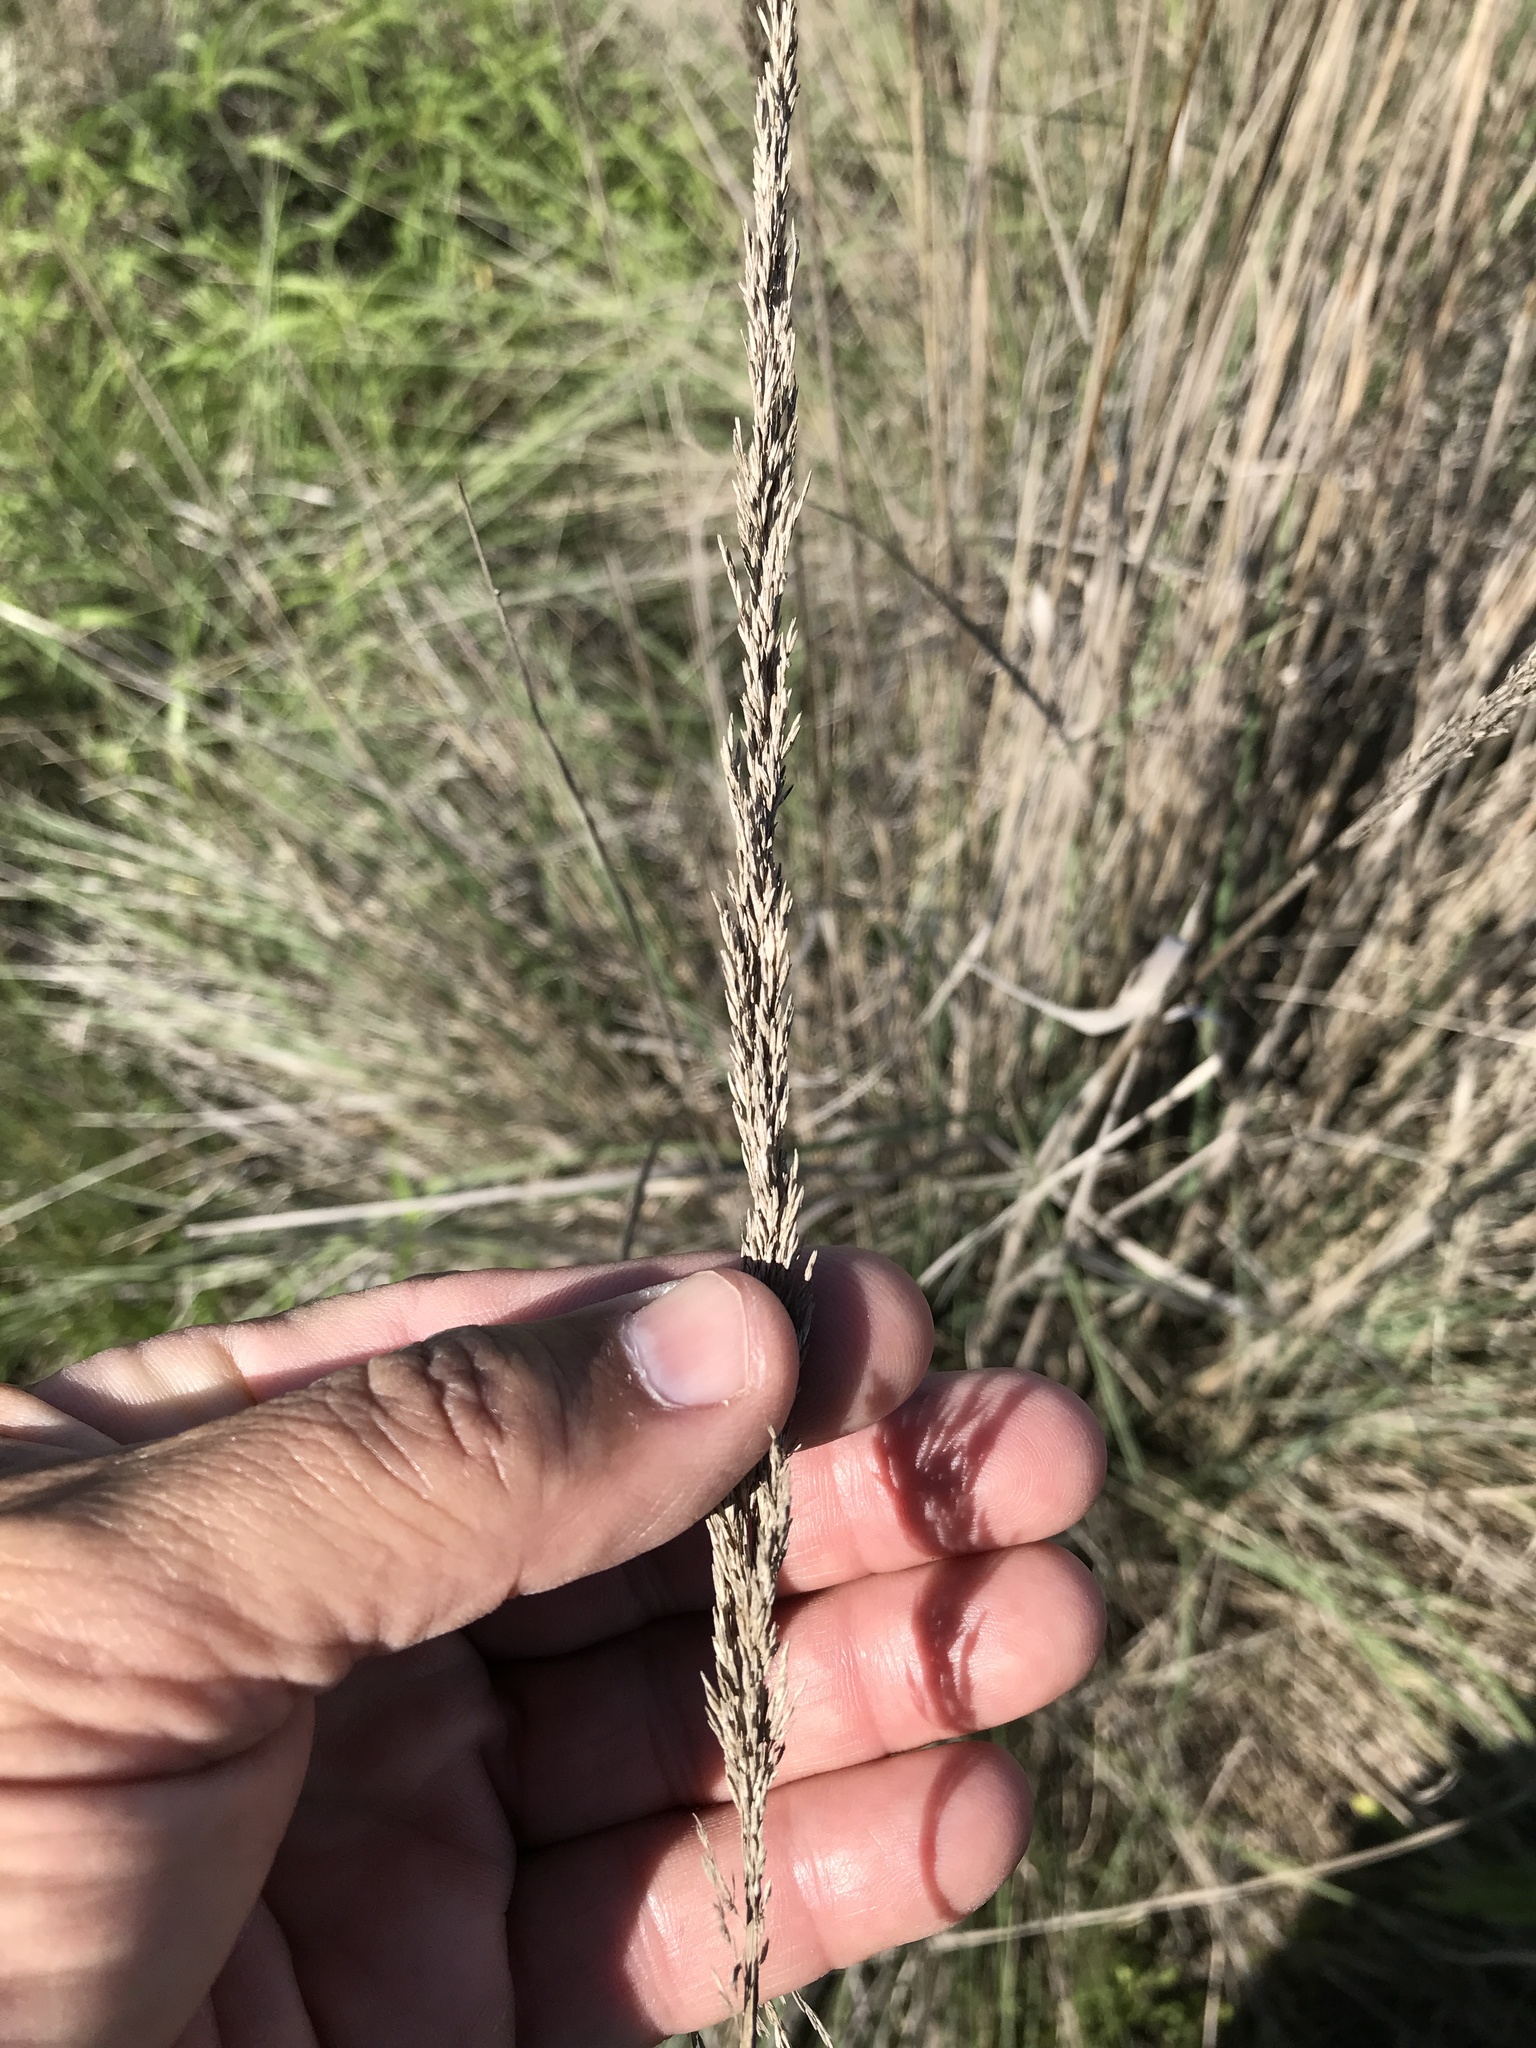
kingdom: Plantae
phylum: Tracheophyta
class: Liliopsida
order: Poales
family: Poaceae
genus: Muhlenbergia
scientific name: Muhlenbergia lindheimeri
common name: Lindheimer's muhly
